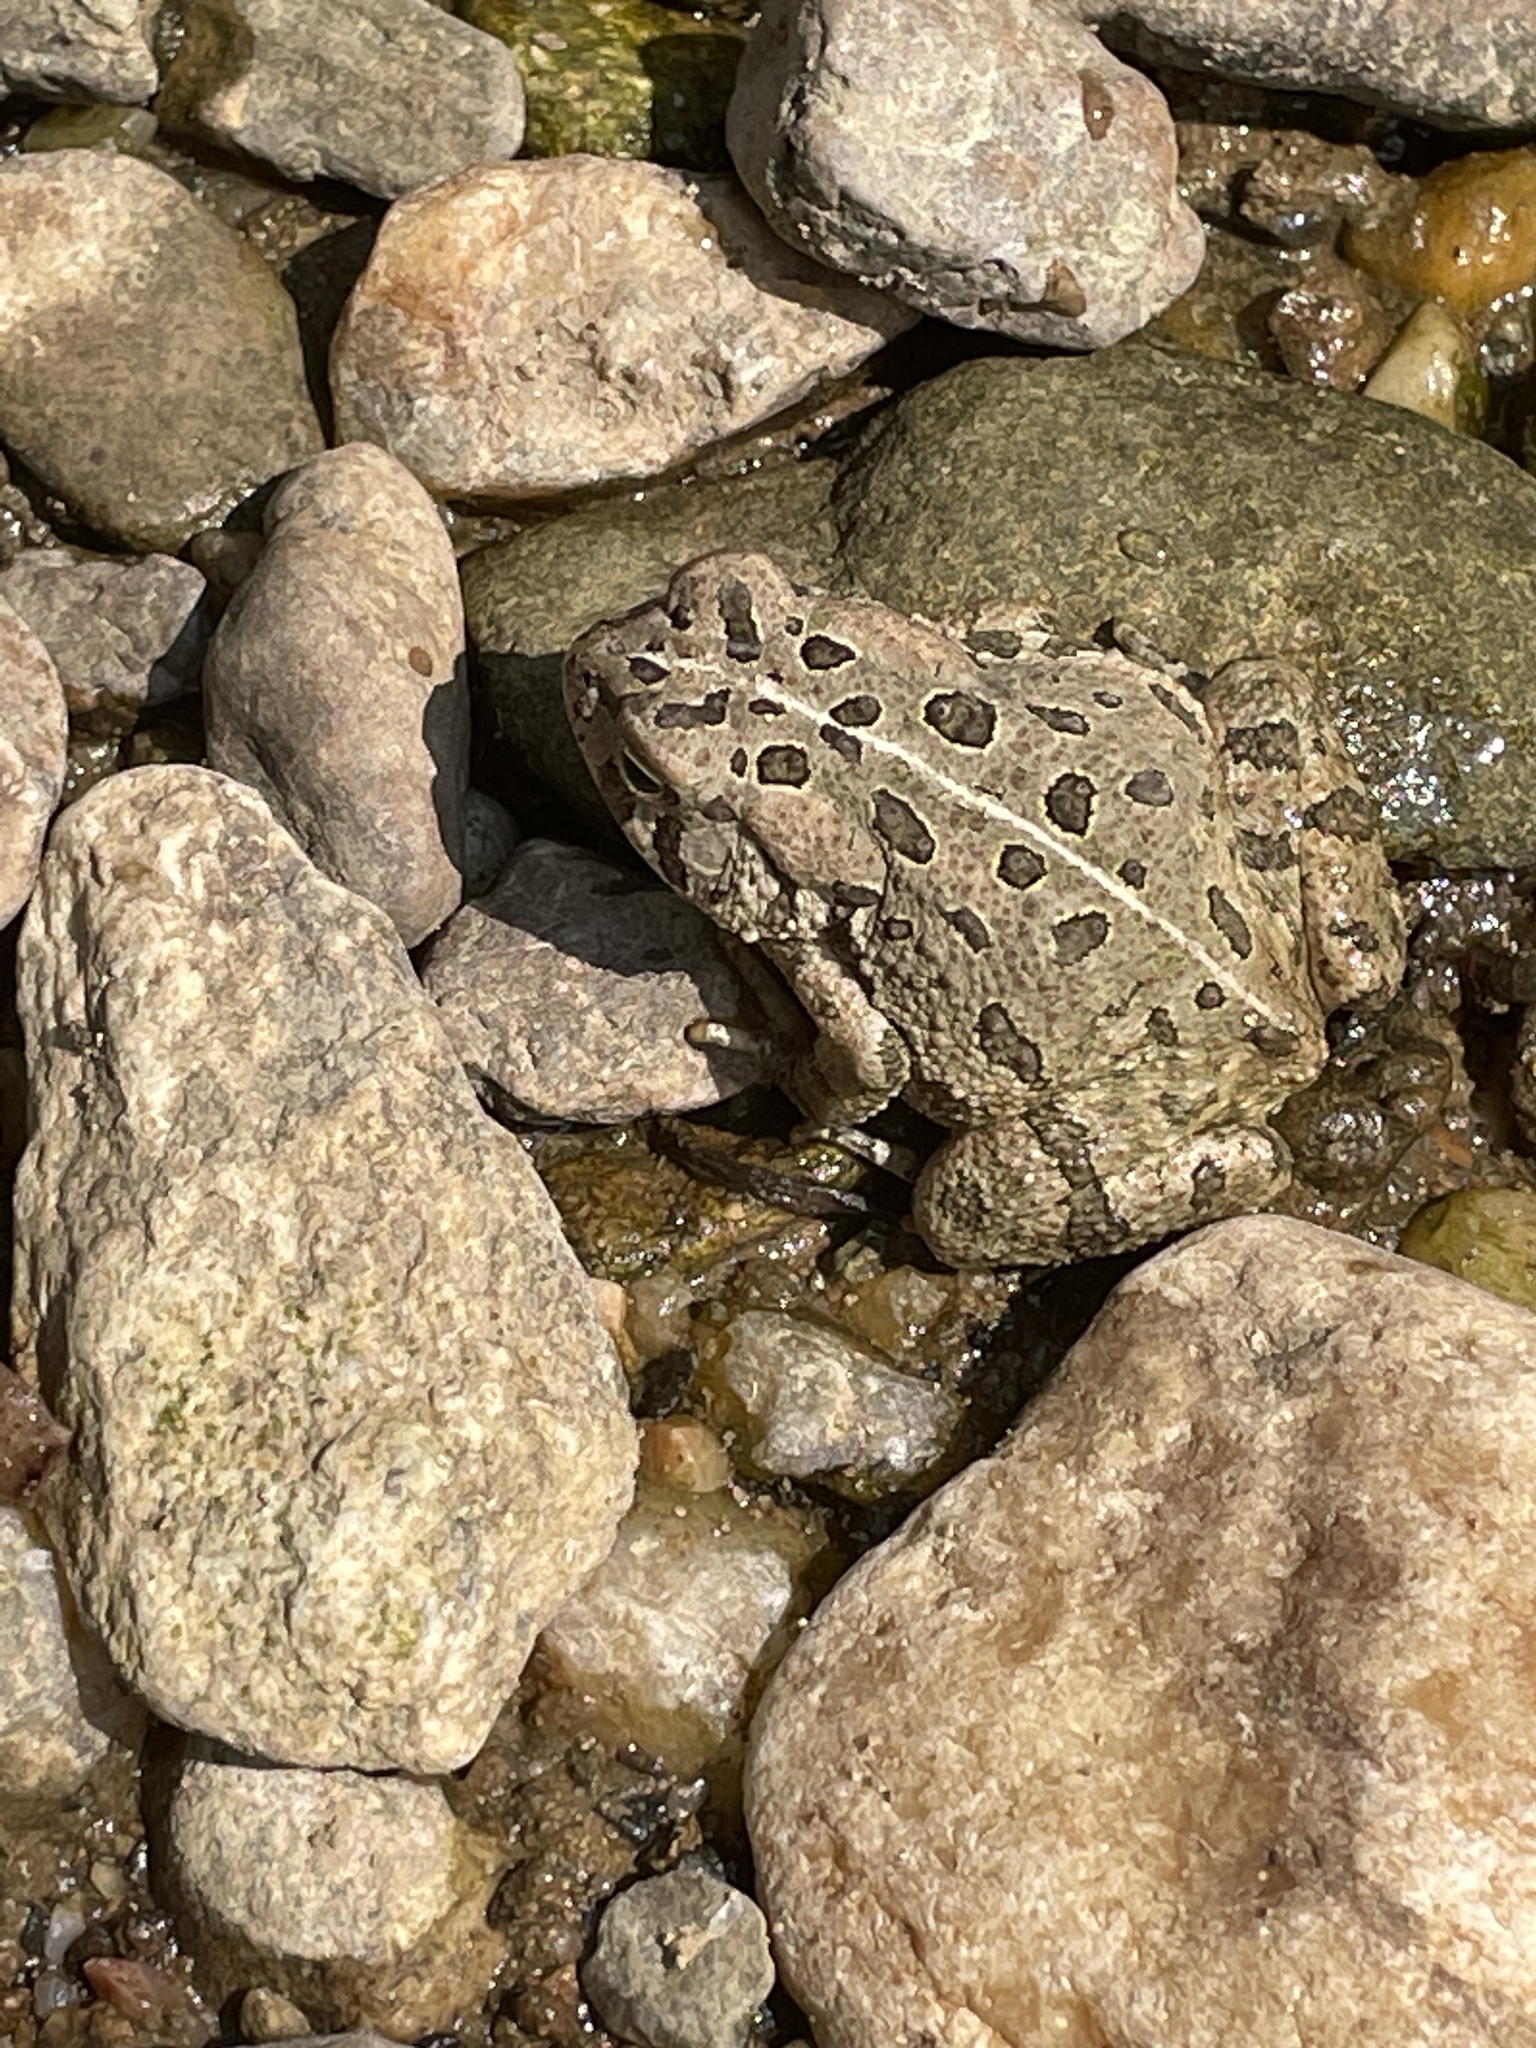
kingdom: Animalia
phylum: Chordata
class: Amphibia
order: Anura
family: Bufonidae
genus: Anaxyrus
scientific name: Anaxyrus fowleri
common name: Fowler's toad
